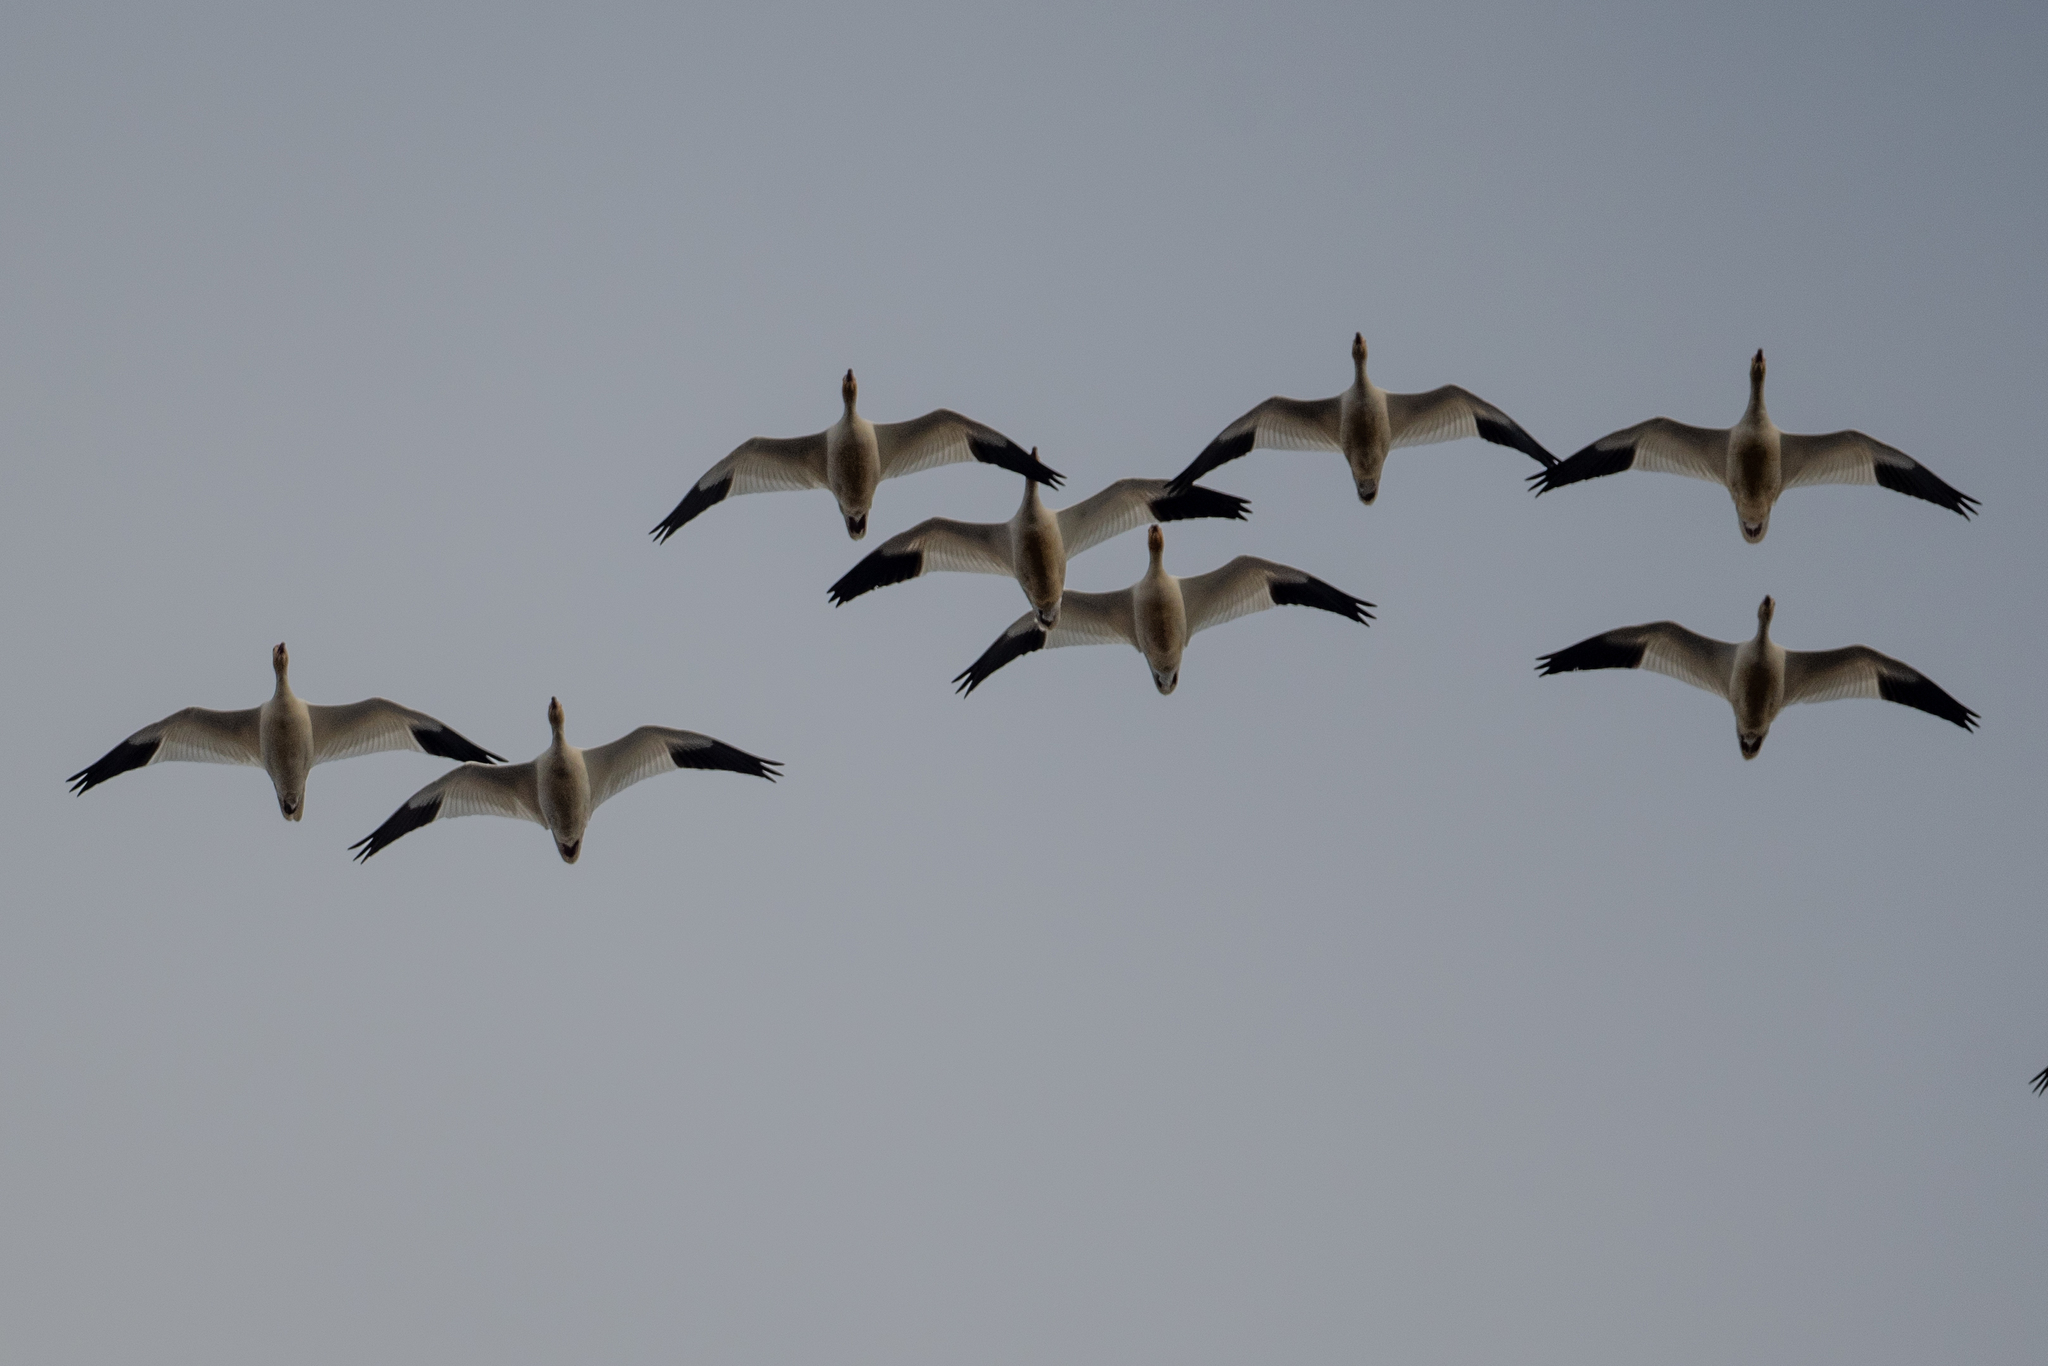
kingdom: Animalia
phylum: Chordata
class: Aves
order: Anseriformes
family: Anatidae
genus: Anser
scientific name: Anser caerulescens
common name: Snow goose
